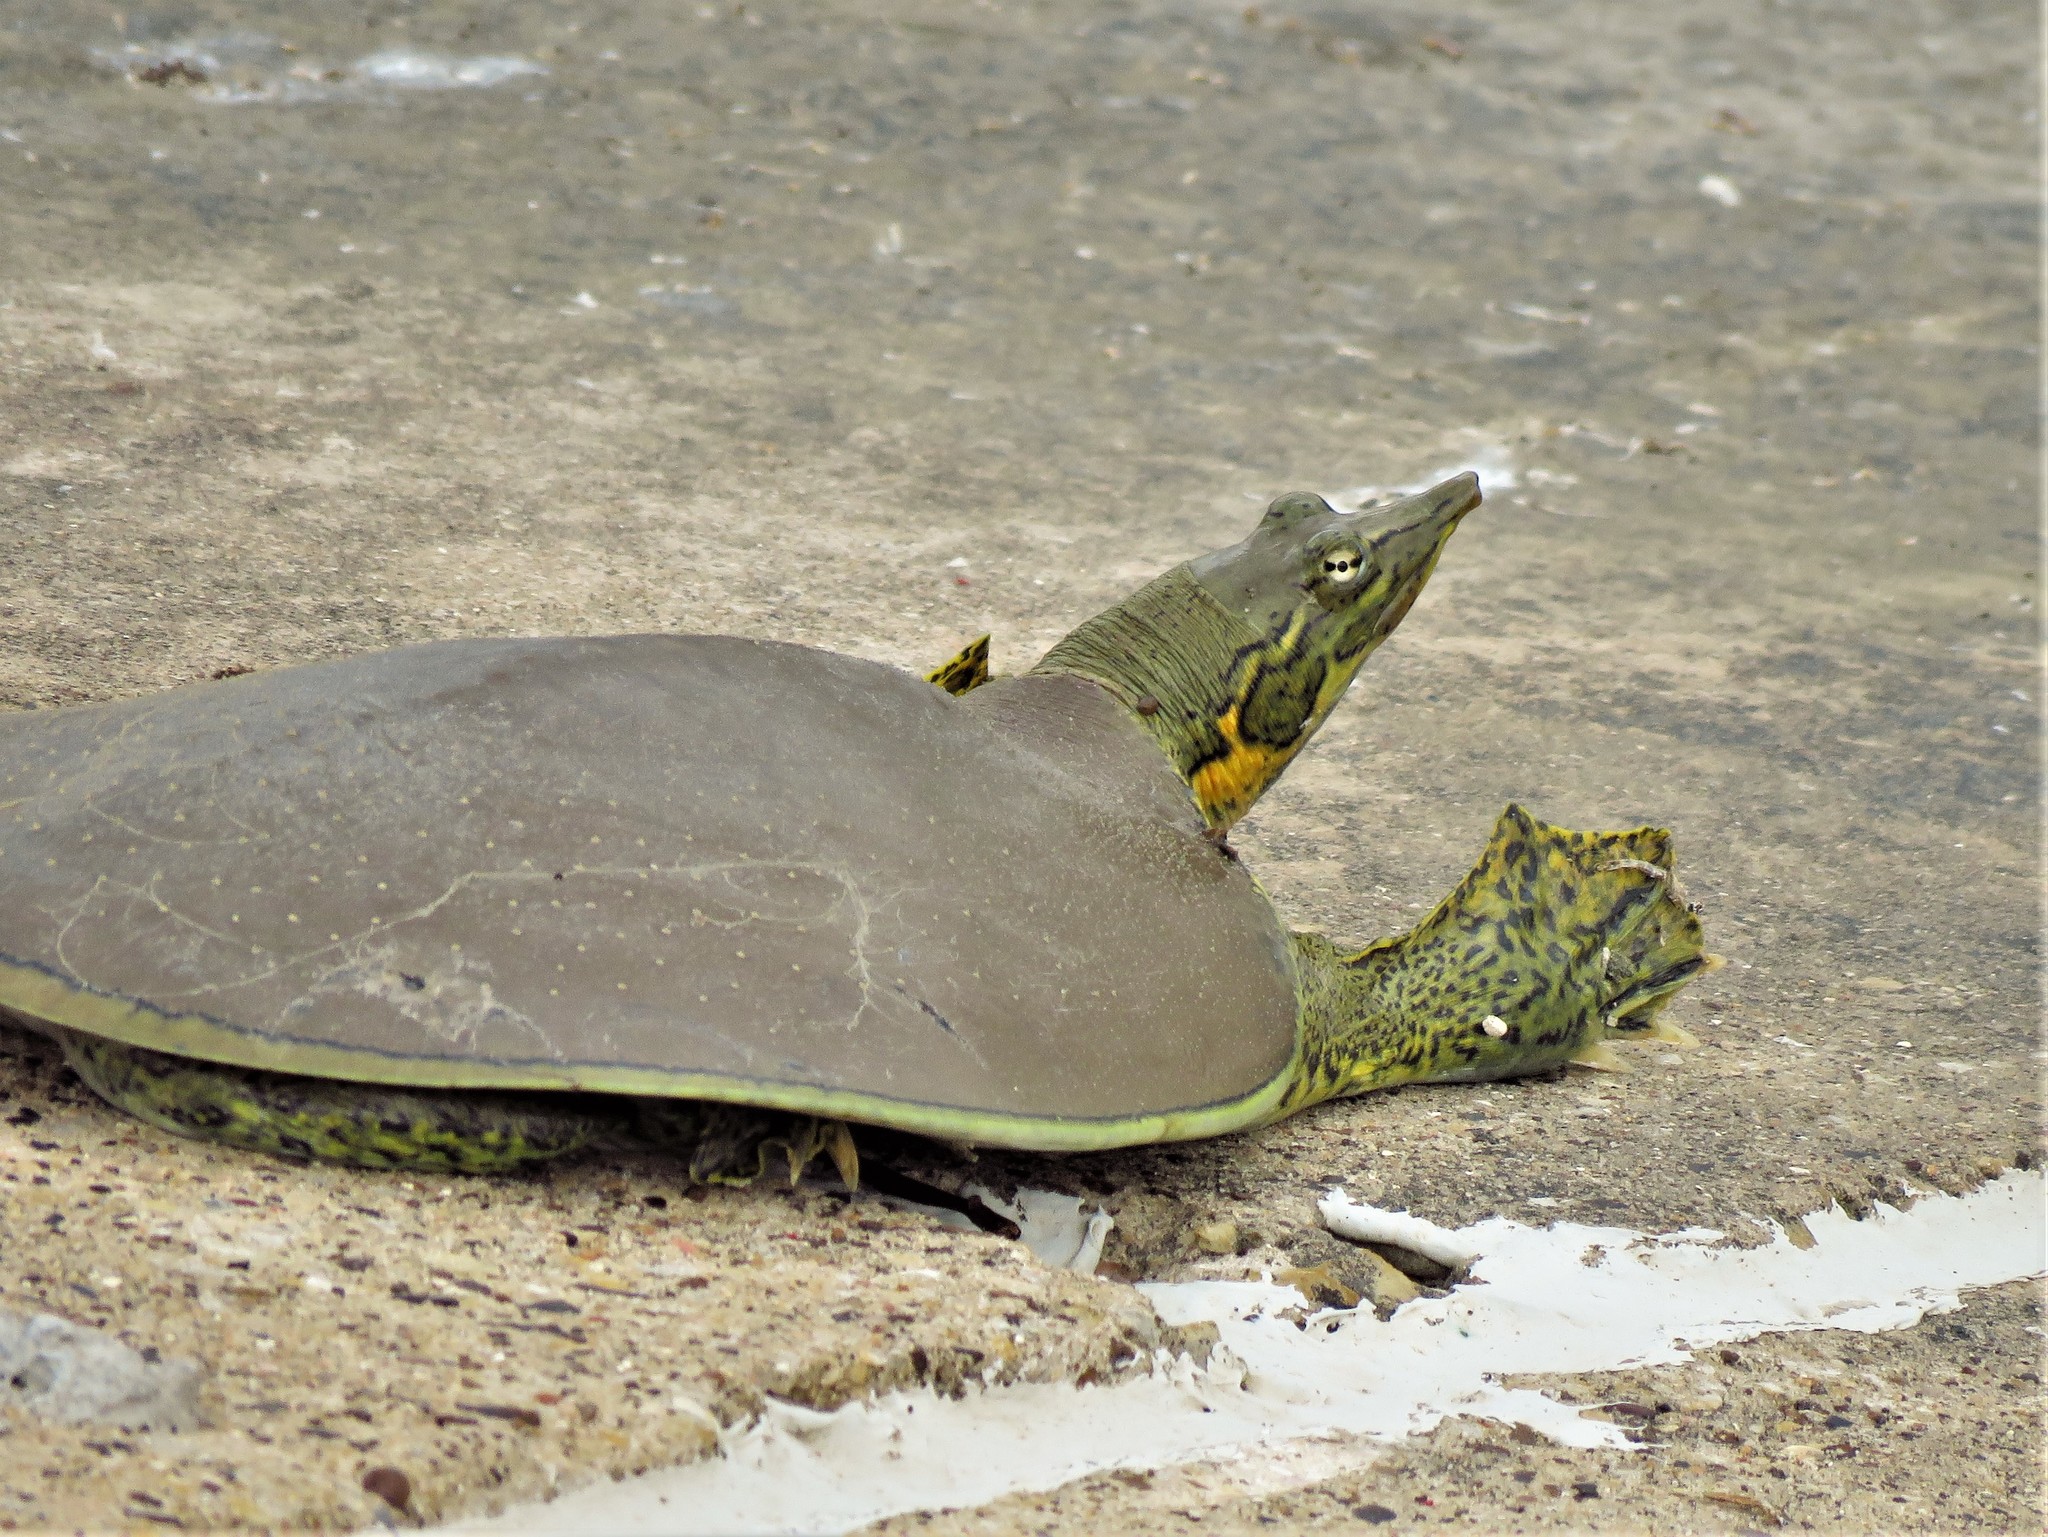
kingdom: Animalia
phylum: Chordata
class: Testudines
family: Trionychidae
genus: Apalone
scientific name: Apalone spinifera
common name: Spiny softshell turtle
